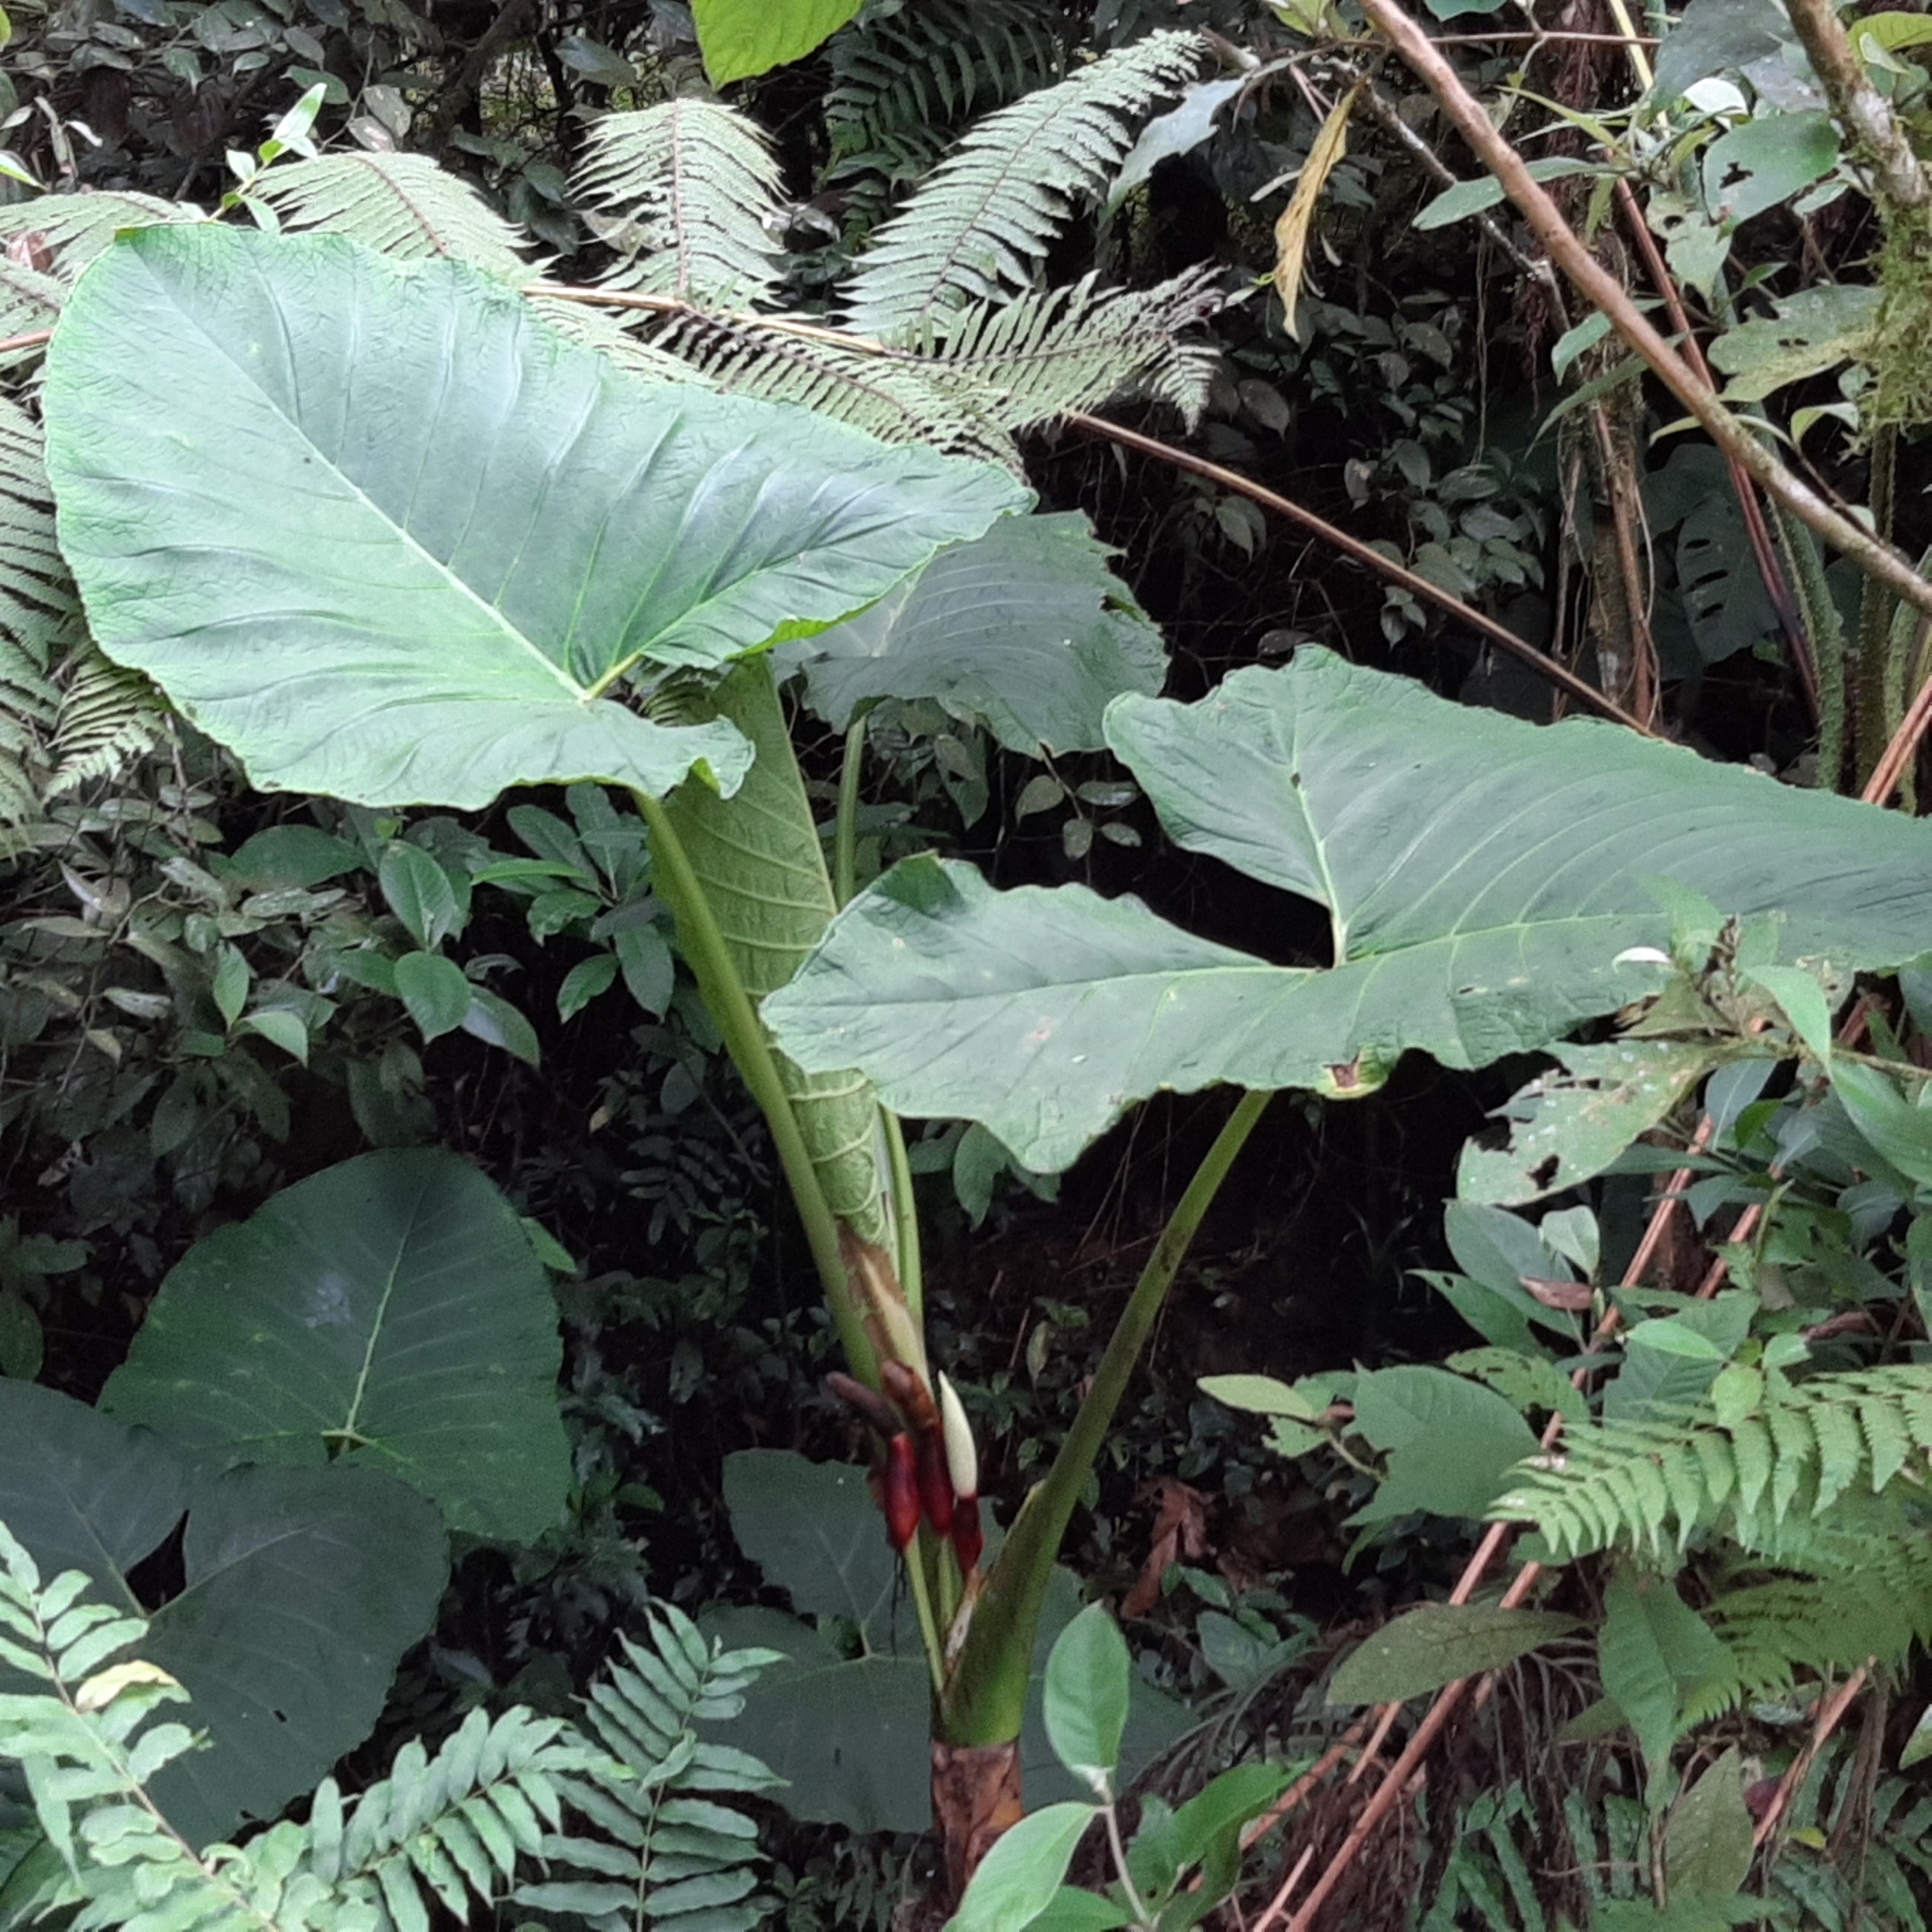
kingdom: Plantae
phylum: Tracheophyta
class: Liliopsida
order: Alismatales
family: Araceae
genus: Xanthosoma
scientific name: Xanthosoma undipes
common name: Tall elephant's ear
